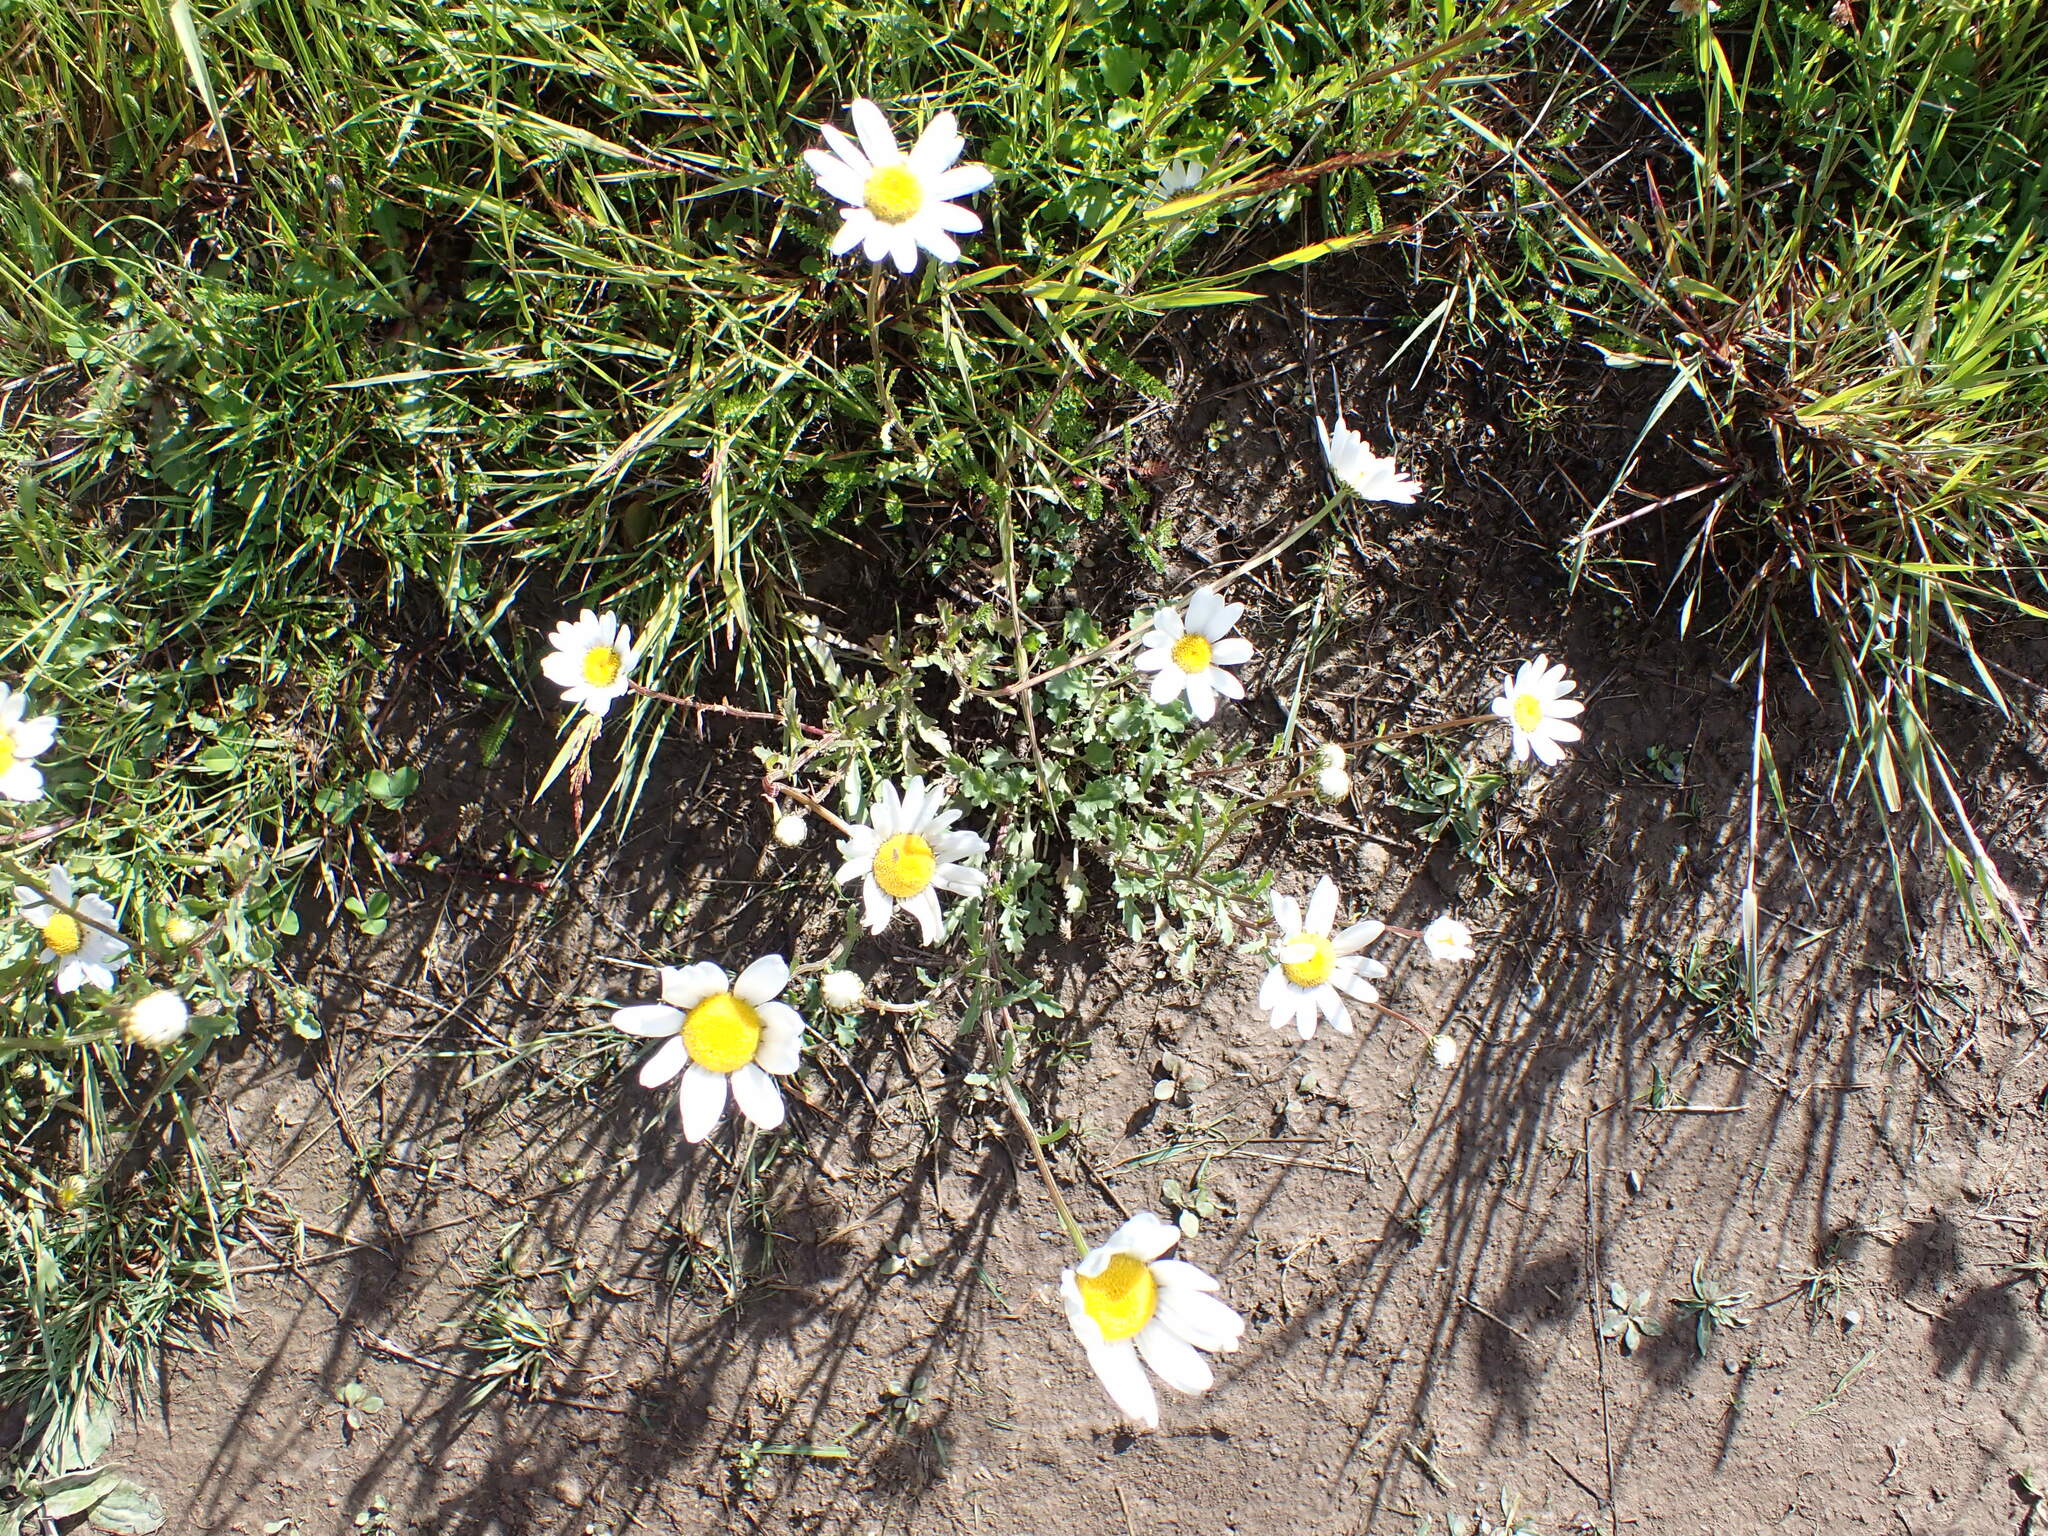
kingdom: Plantae
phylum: Tracheophyta
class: Magnoliopsida
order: Asterales
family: Asteraceae
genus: Leucanthemum
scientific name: Leucanthemum vulgare
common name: Oxeye daisy
